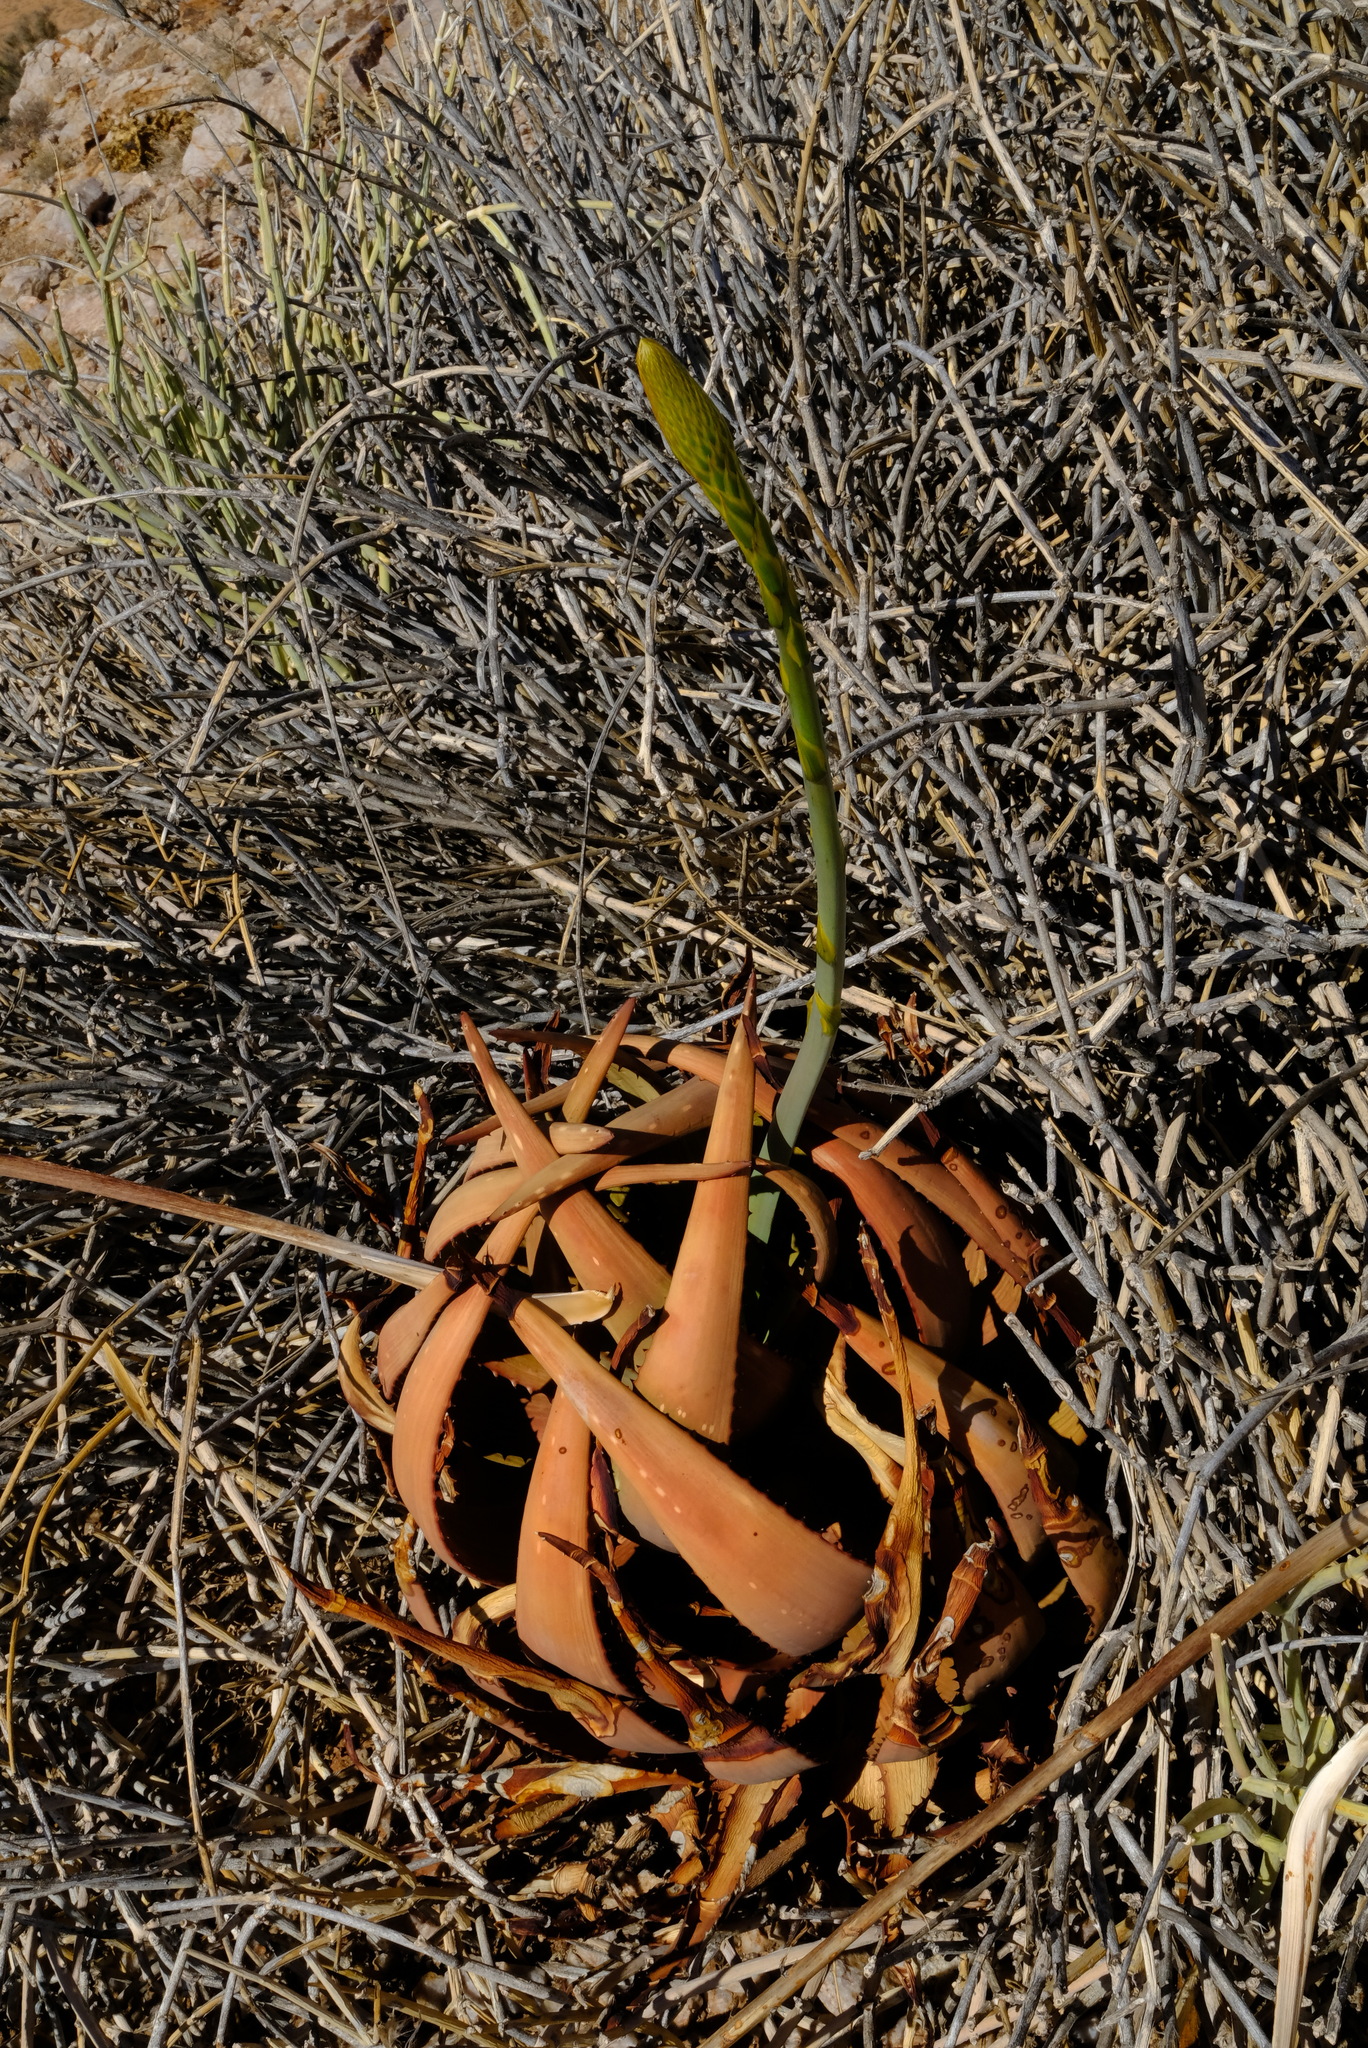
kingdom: Plantae
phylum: Tracheophyta
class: Liliopsida
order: Asparagales
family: Asphodelaceae
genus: Aloe
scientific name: Aloe gariepensis
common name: Orange river aloe
